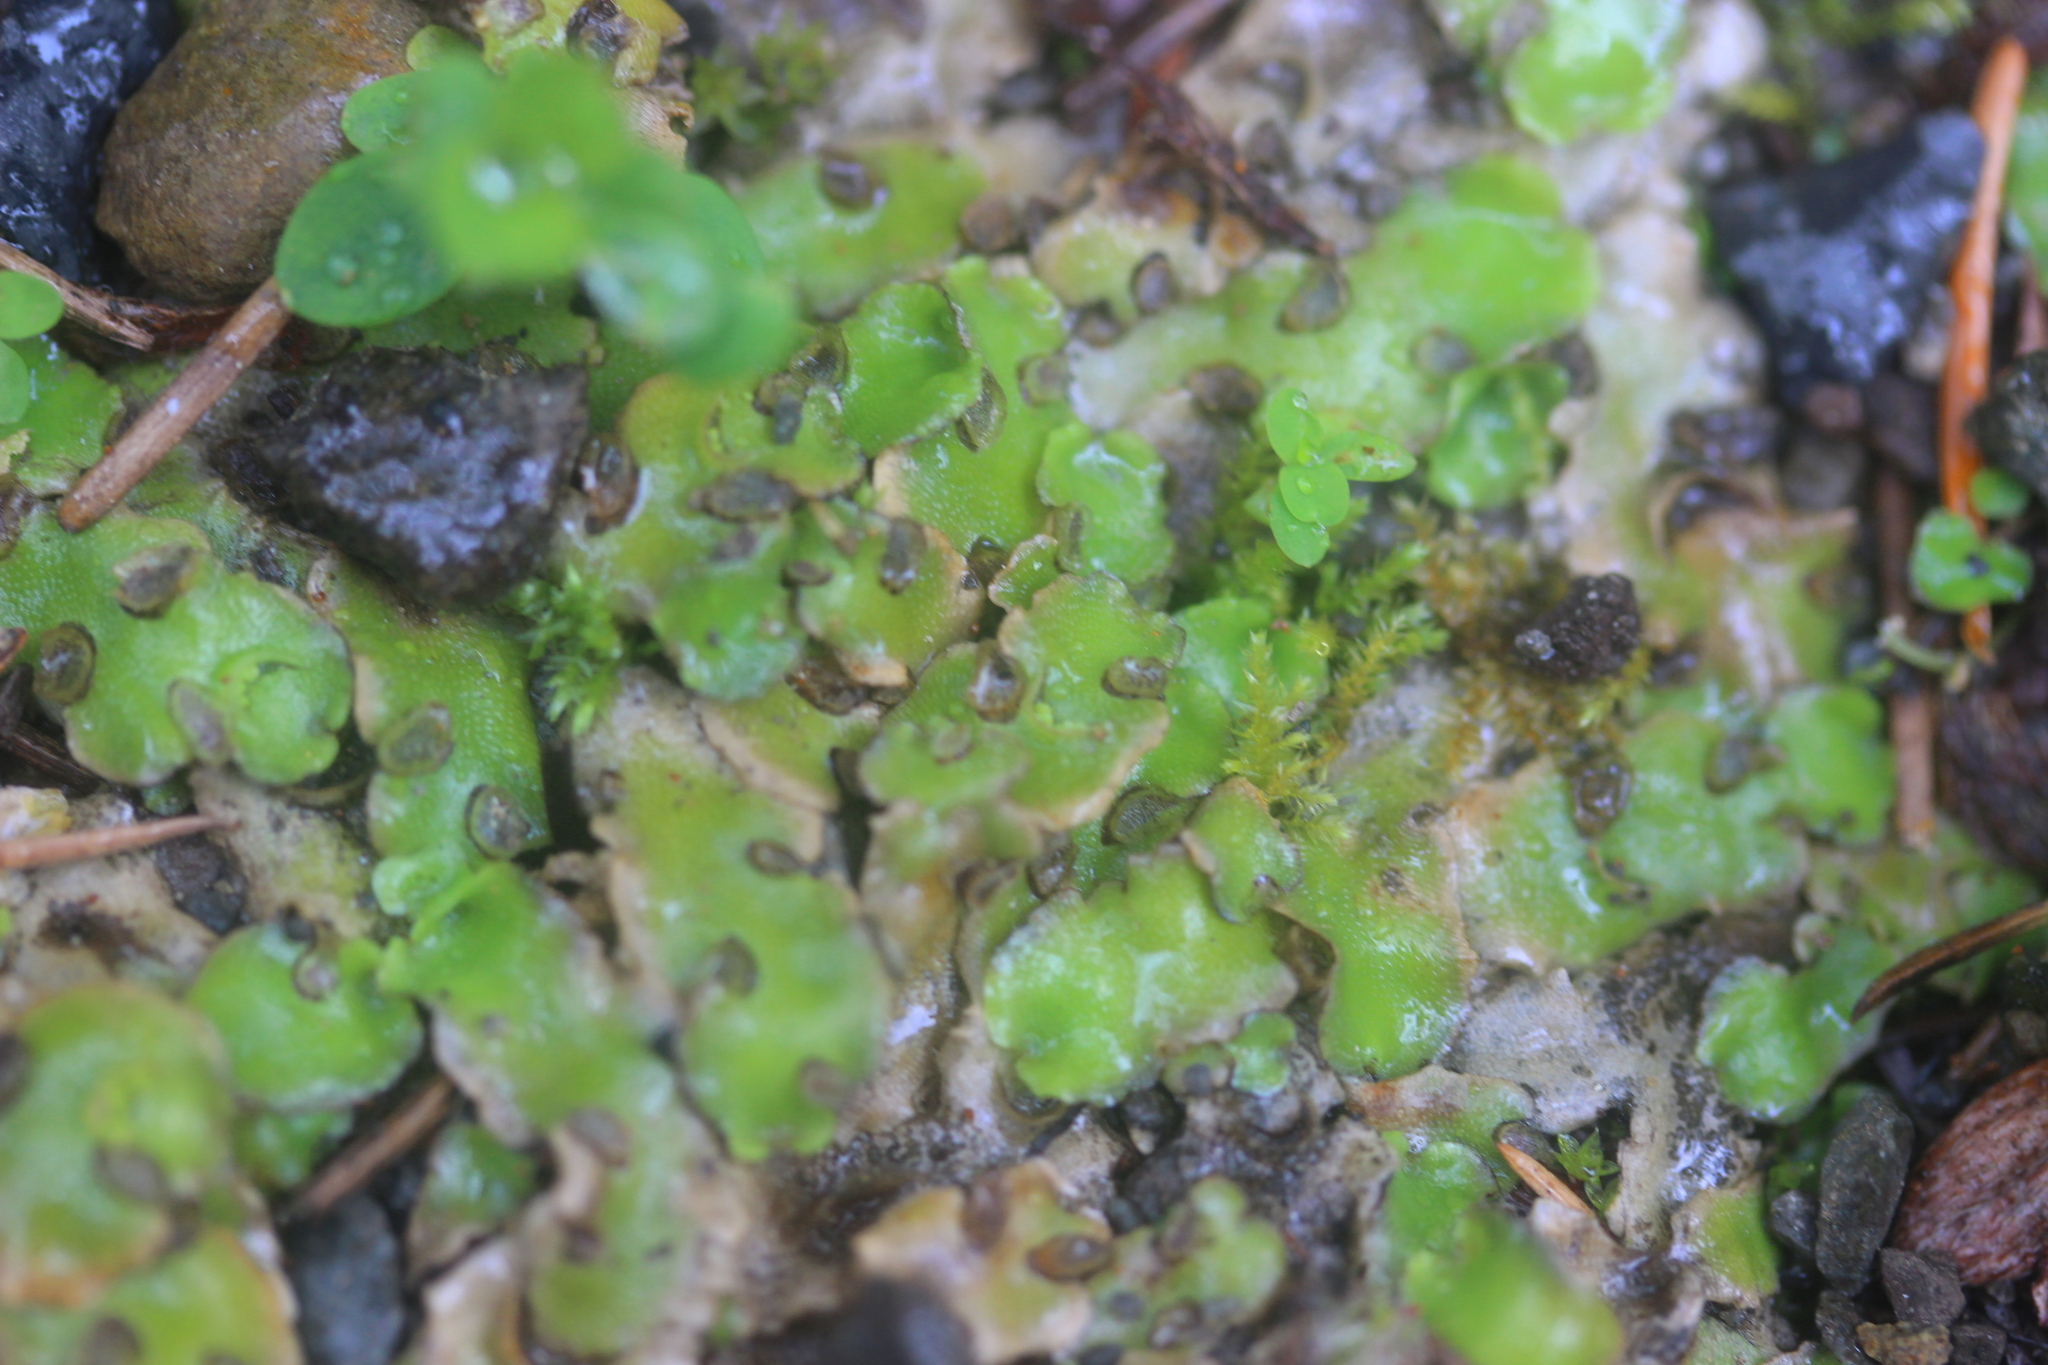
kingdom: Plantae
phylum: Marchantiophyta
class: Marchantiopsida
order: Lunulariales
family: Lunulariaceae
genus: Lunularia
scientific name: Lunularia cruciata
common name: Crescent-cup liverwort
